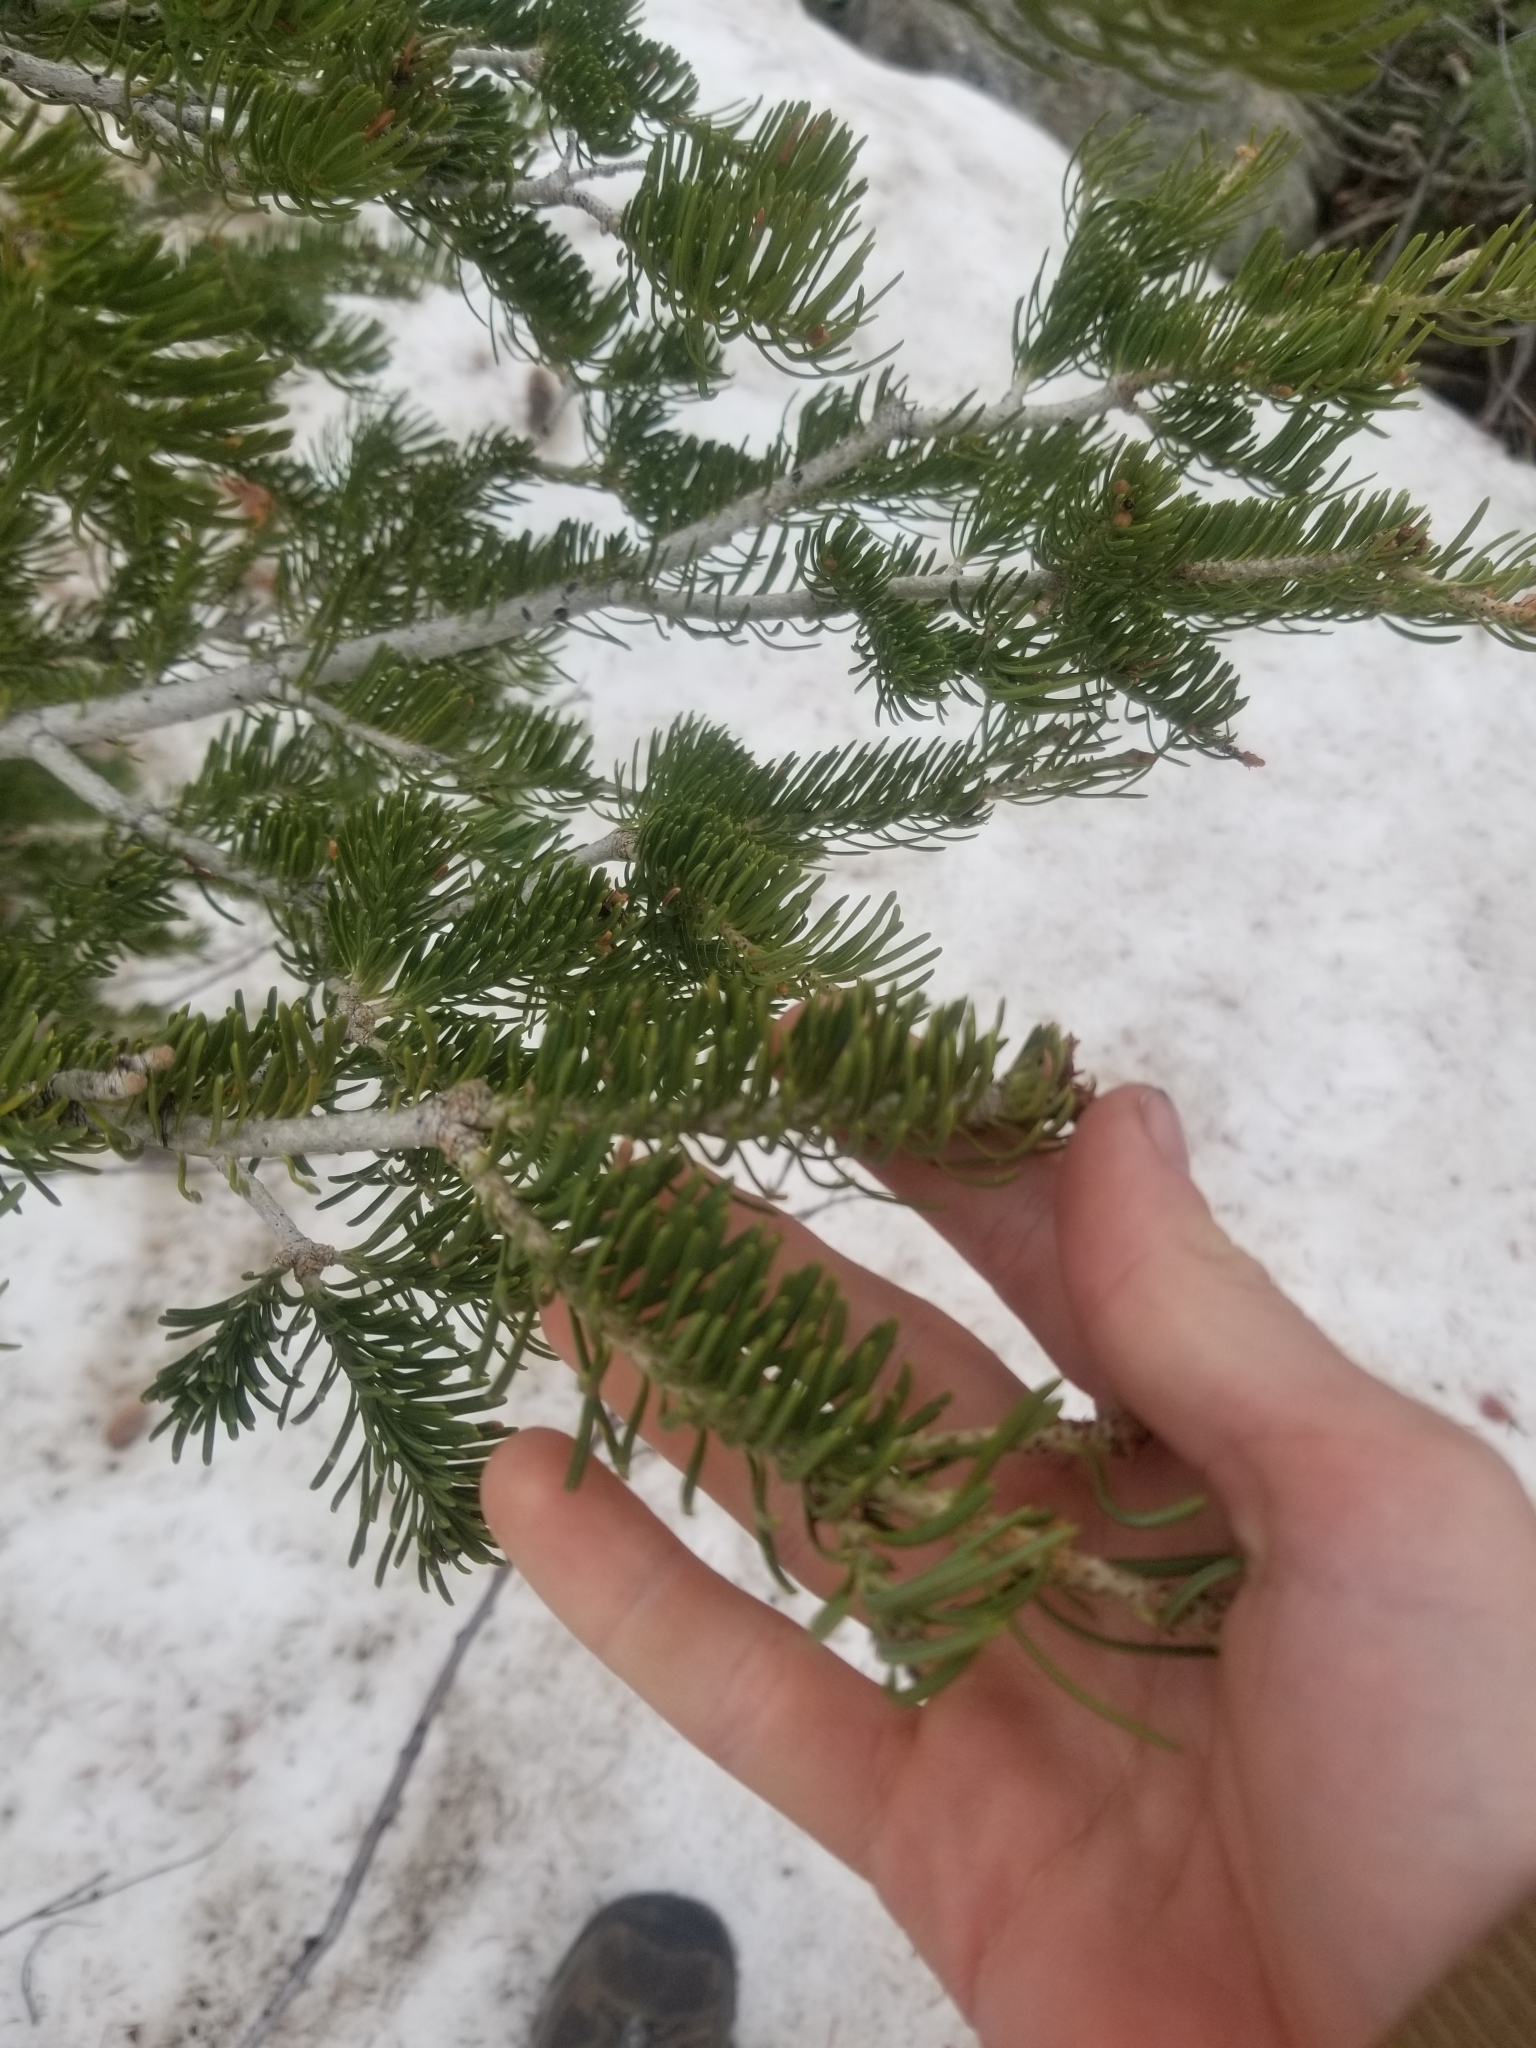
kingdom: Plantae
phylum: Tracheophyta
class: Pinopsida
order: Pinales
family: Pinaceae
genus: Abies
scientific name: Abies lasiocarpa
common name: Subalpine fir
